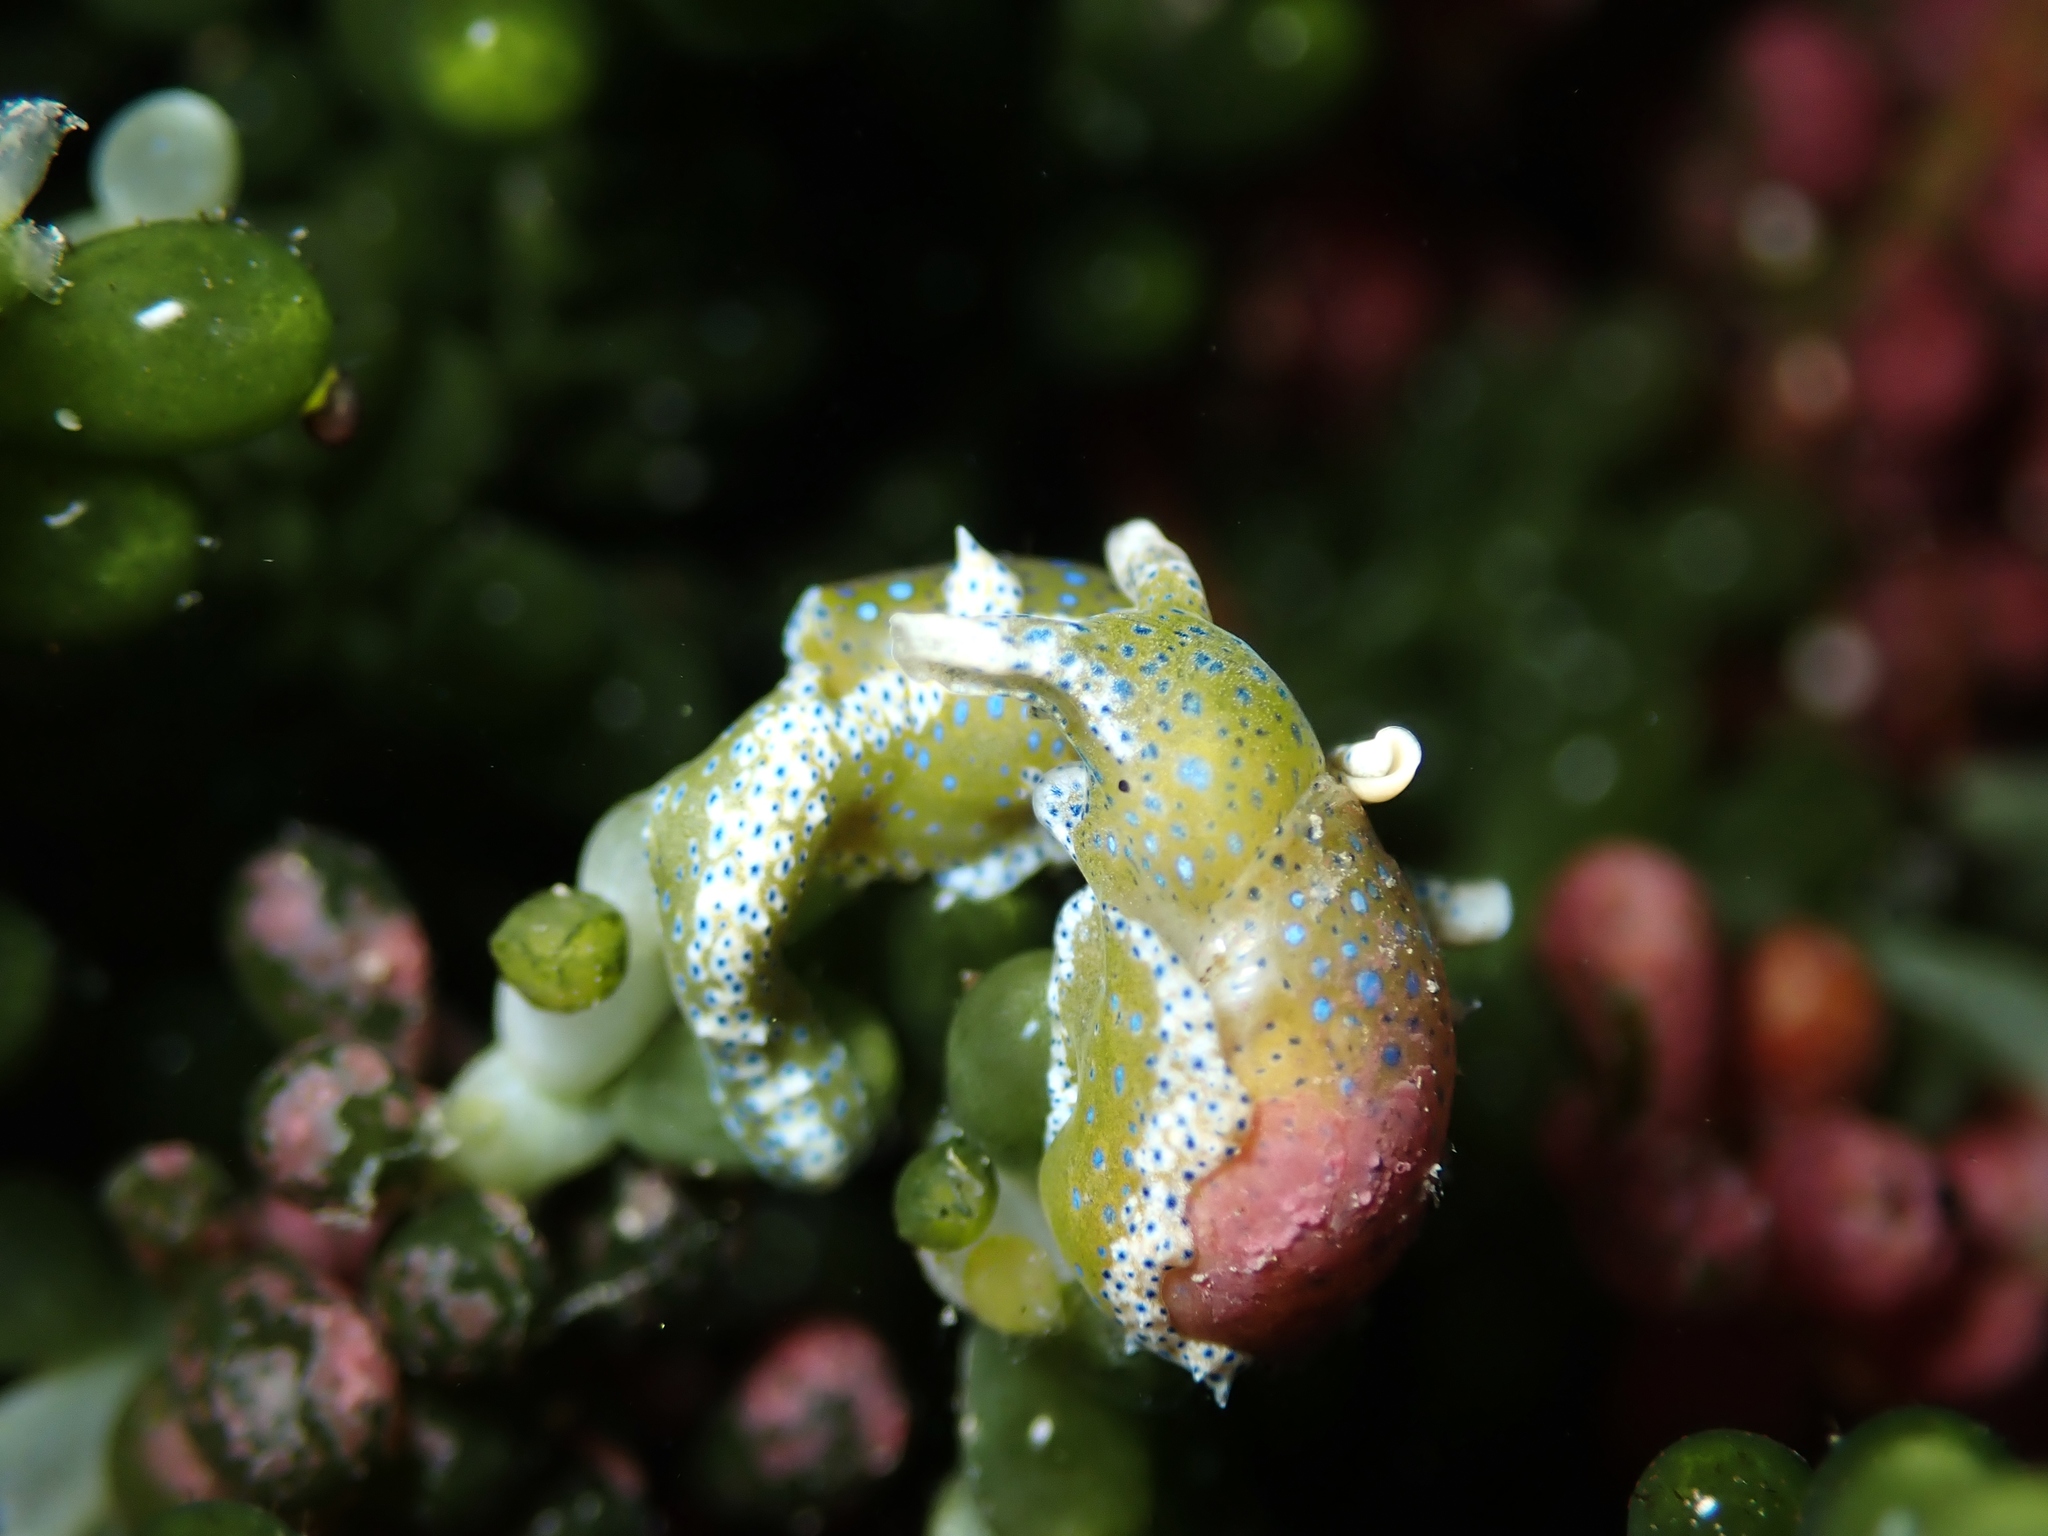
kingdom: Animalia
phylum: Mollusca
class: Gastropoda
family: Oxynoidae
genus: Oxynoe
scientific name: Oxynoe viridis
